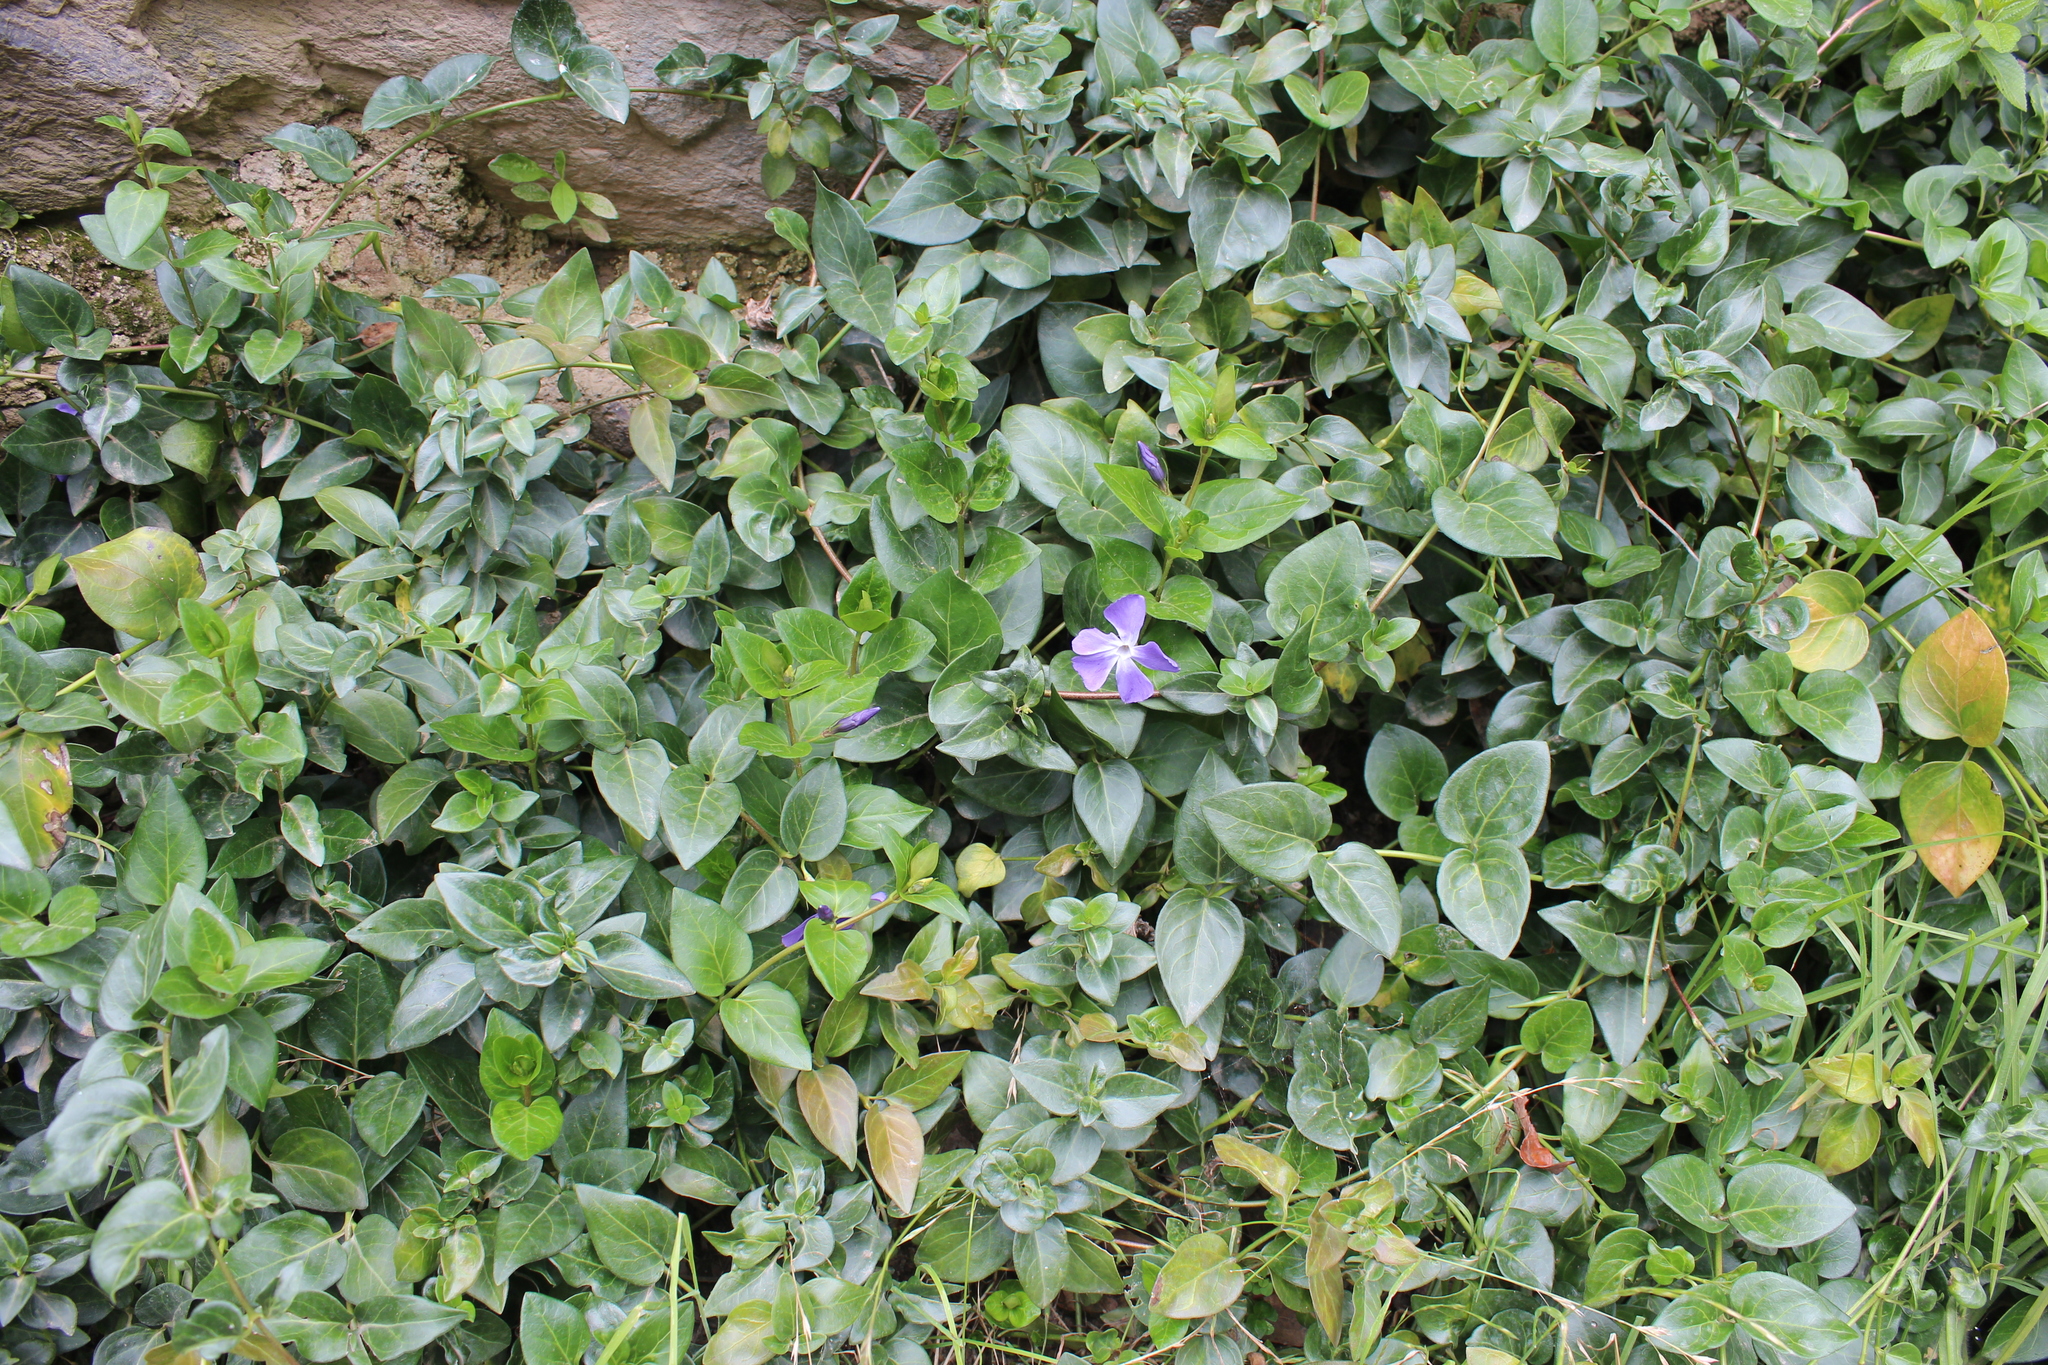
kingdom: Plantae
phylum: Tracheophyta
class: Magnoliopsida
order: Gentianales
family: Apocynaceae
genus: Vinca
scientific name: Vinca major
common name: Greater periwinkle
